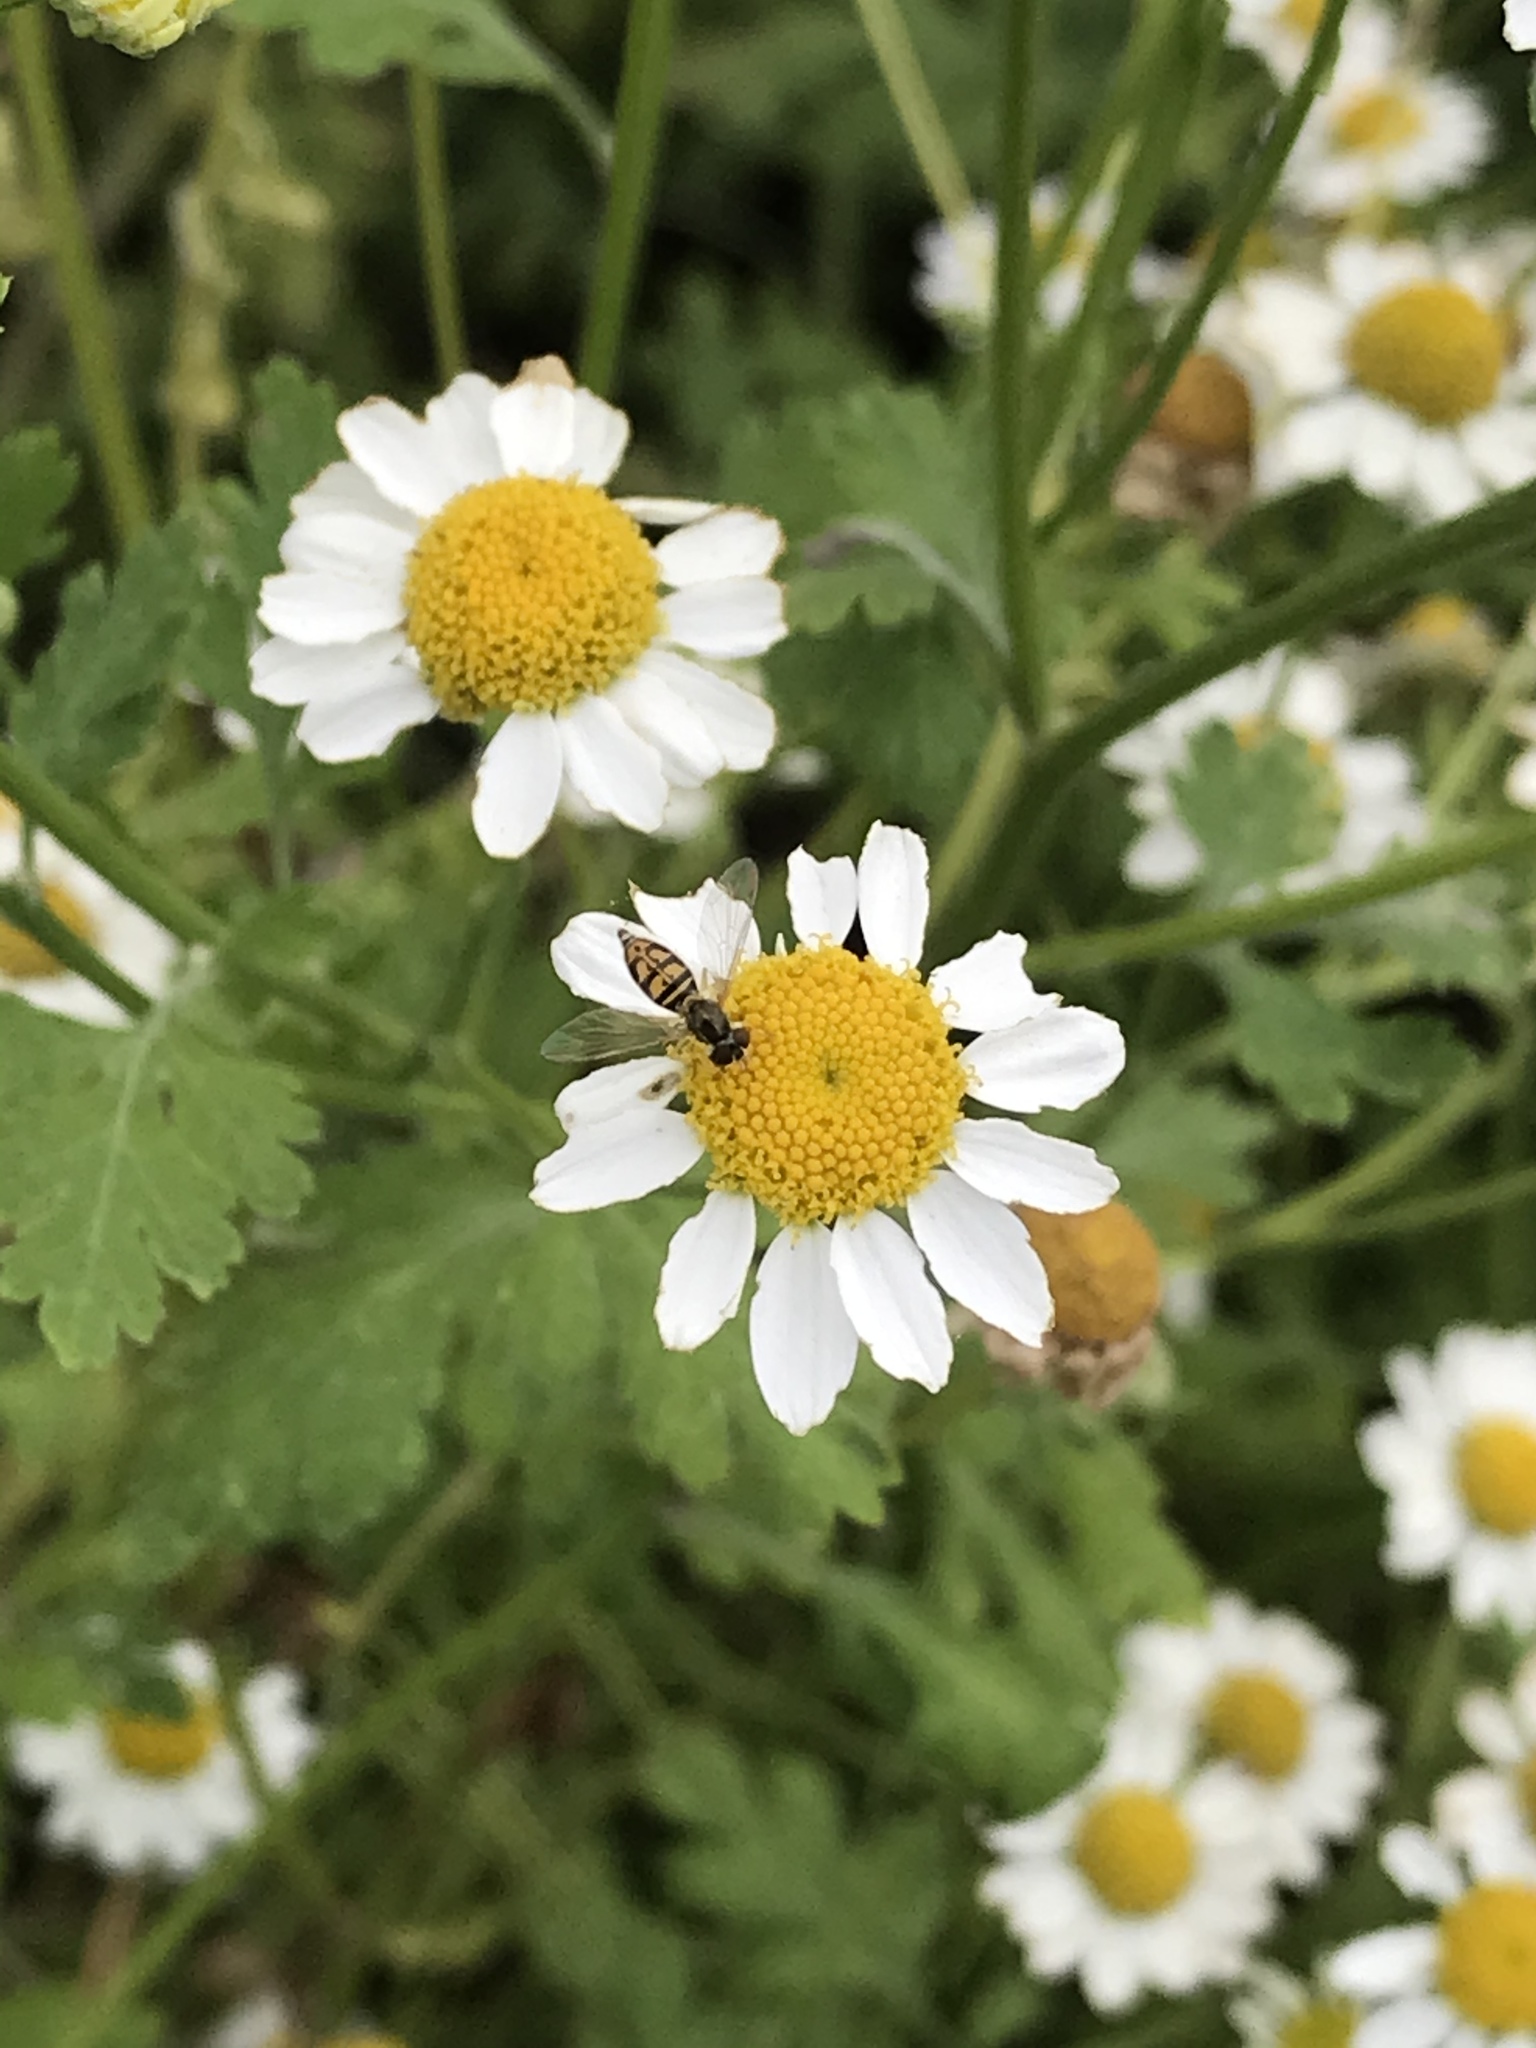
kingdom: Animalia
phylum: Arthropoda
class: Insecta
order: Diptera
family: Syrphidae
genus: Toxomerus
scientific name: Toxomerus marginatus
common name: Syrphid fly
